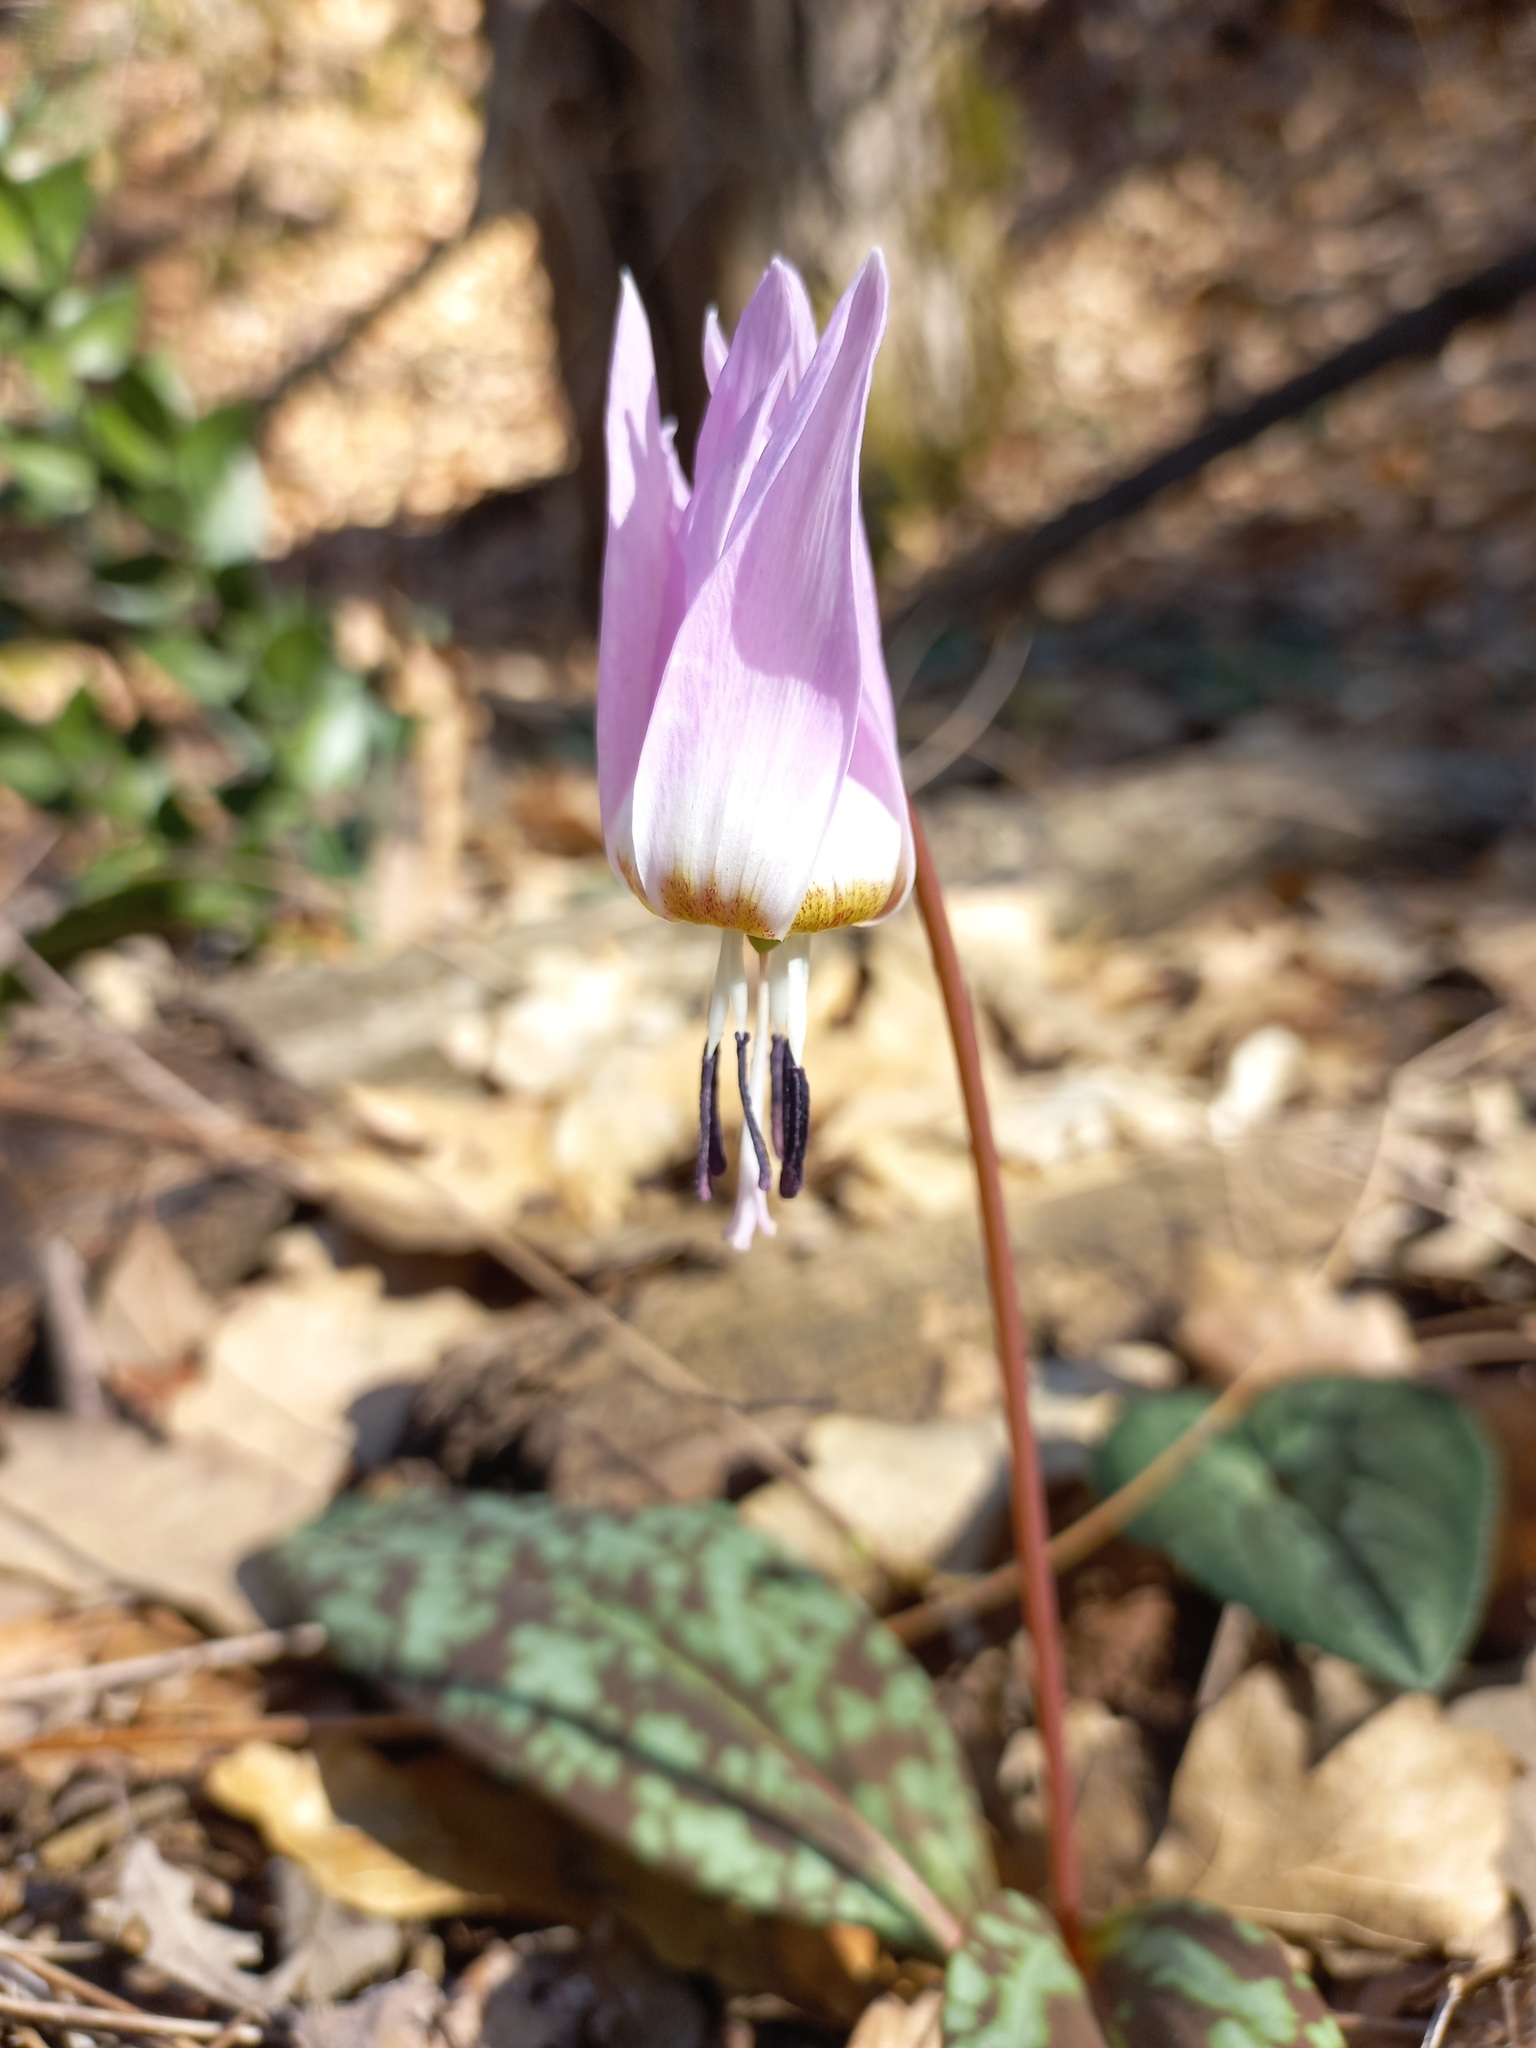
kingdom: Plantae
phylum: Tracheophyta
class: Liliopsida
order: Liliales
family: Liliaceae
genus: Erythronium
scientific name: Erythronium dens-canis
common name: Dog's-tooth-violet
